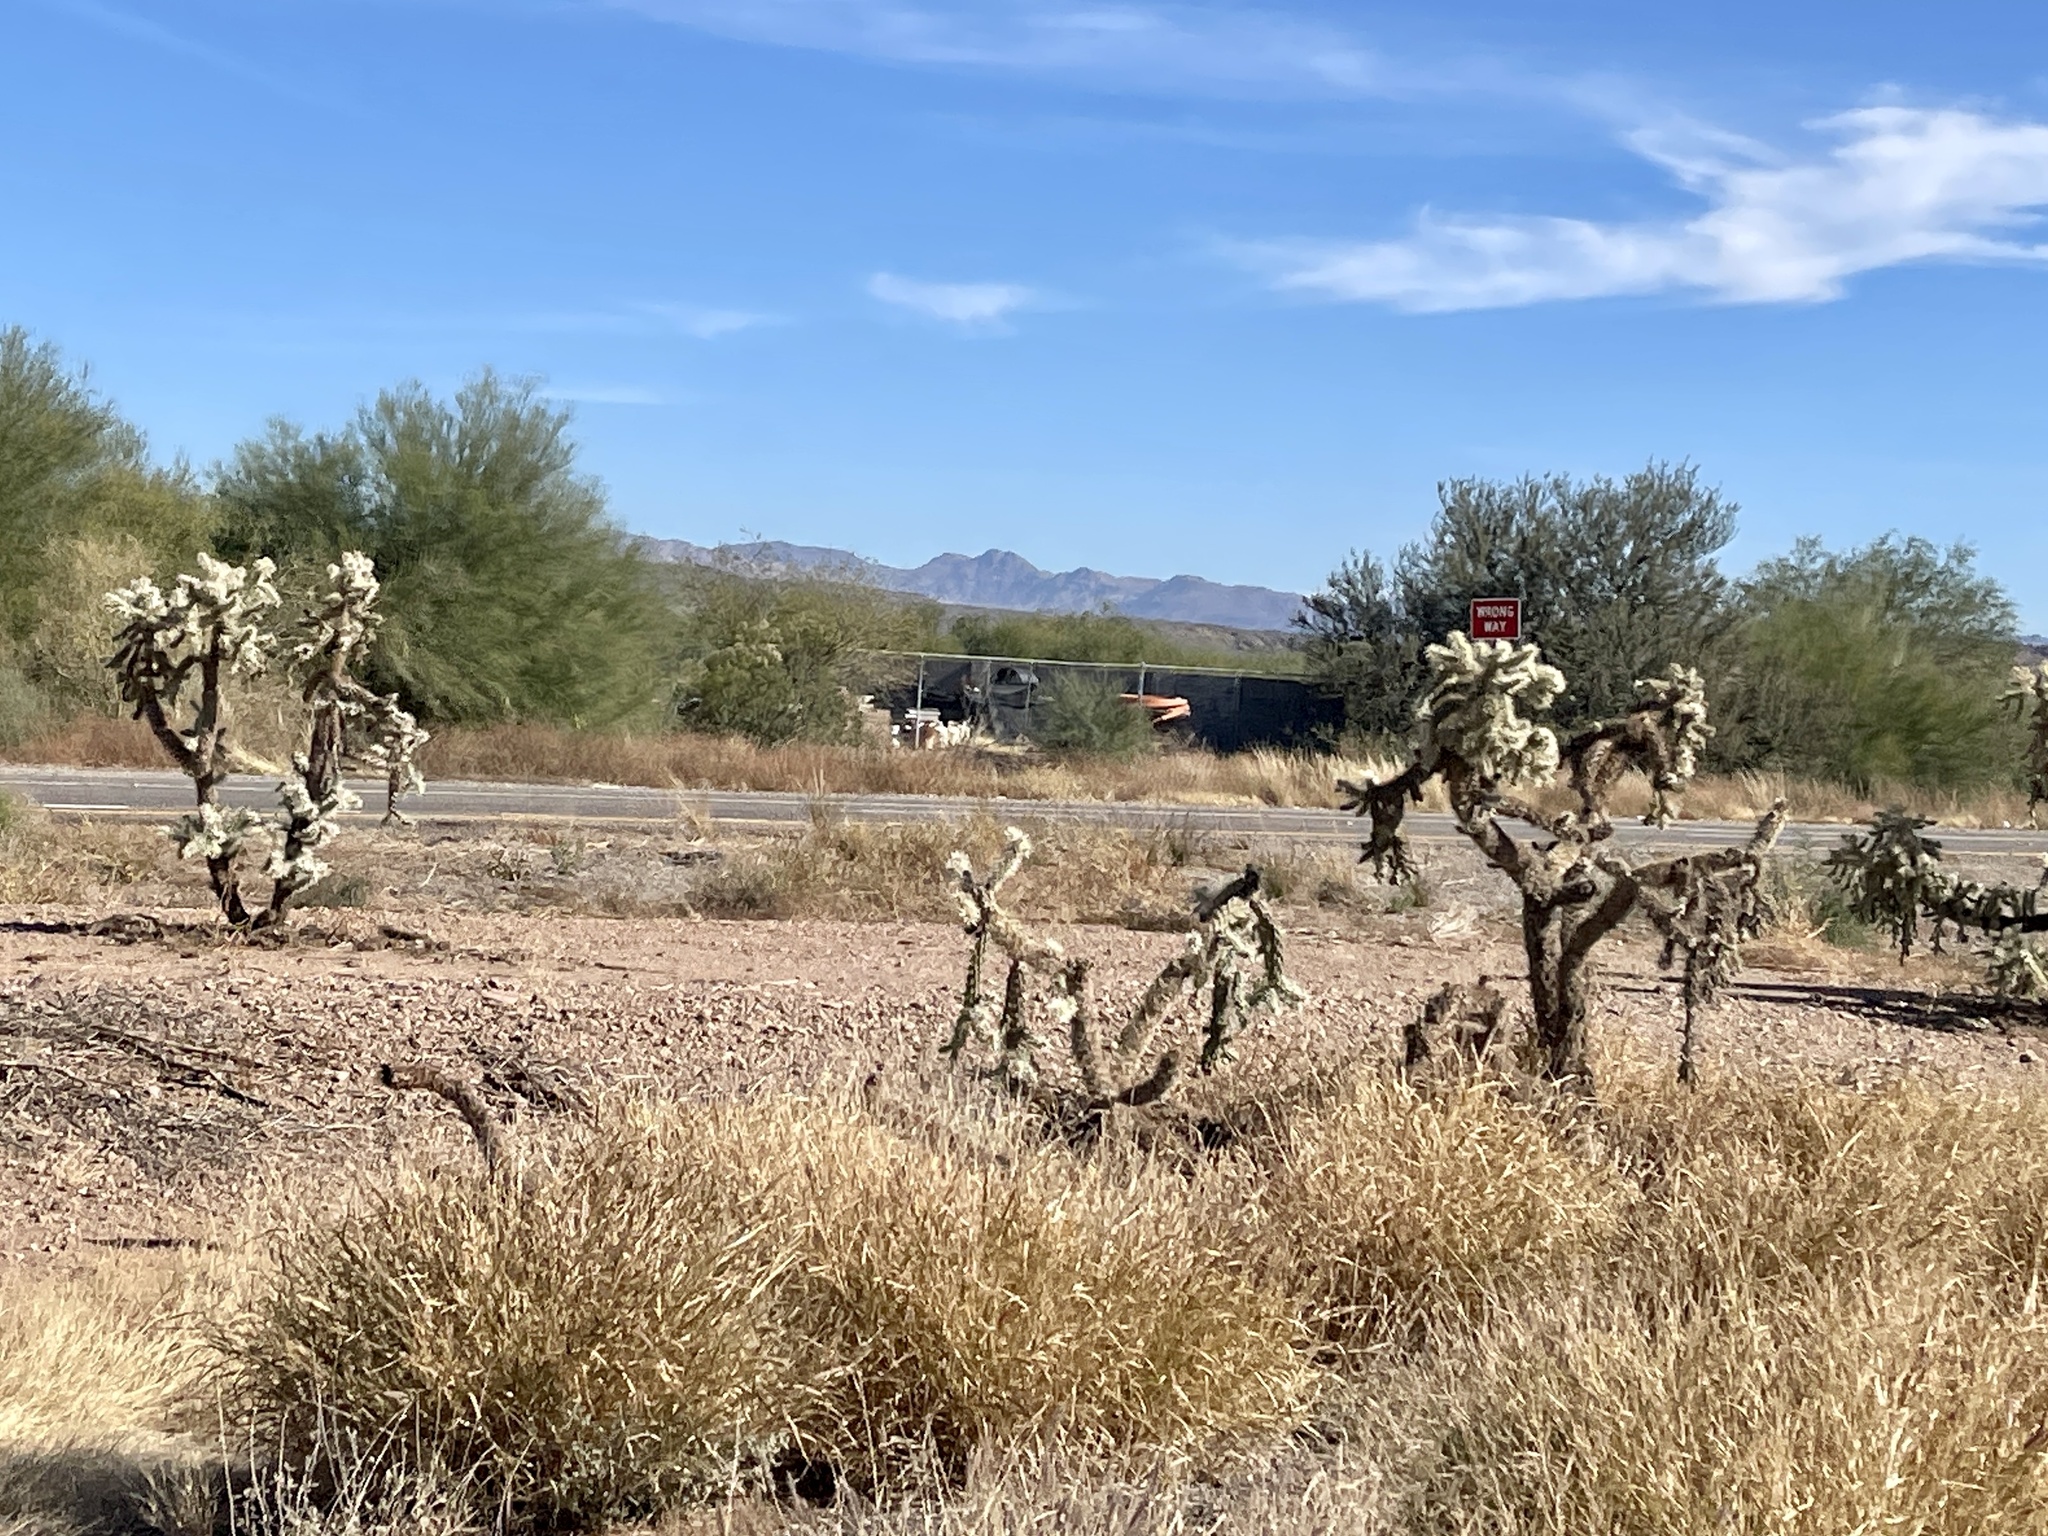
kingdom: Plantae
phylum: Tracheophyta
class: Magnoliopsida
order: Caryophyllales
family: Cactaceae
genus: Cylindropuntia
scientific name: Cylindropuntia fulgida
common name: Jumping cholla
